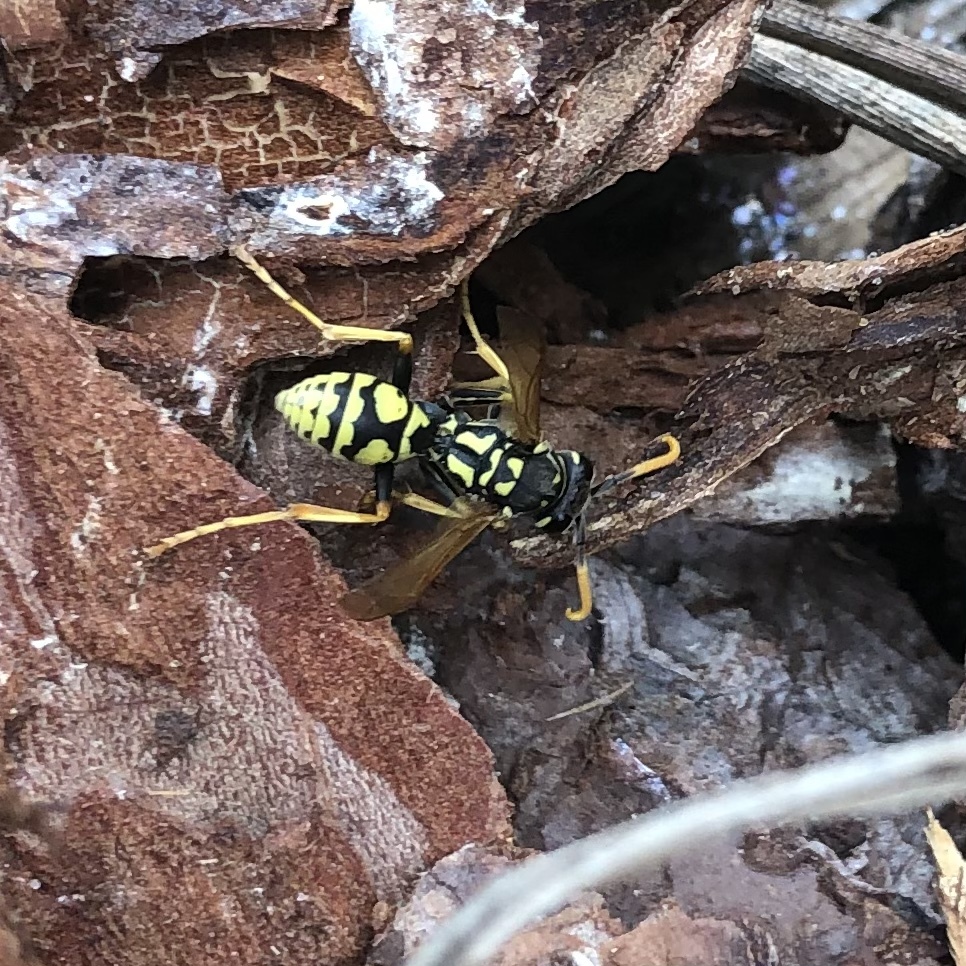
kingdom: Animalia
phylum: Arthropoda
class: Insecta
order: Hymenoptera
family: Eumenidae
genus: Polistes
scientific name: Polistes dominula
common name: Paper wasp
